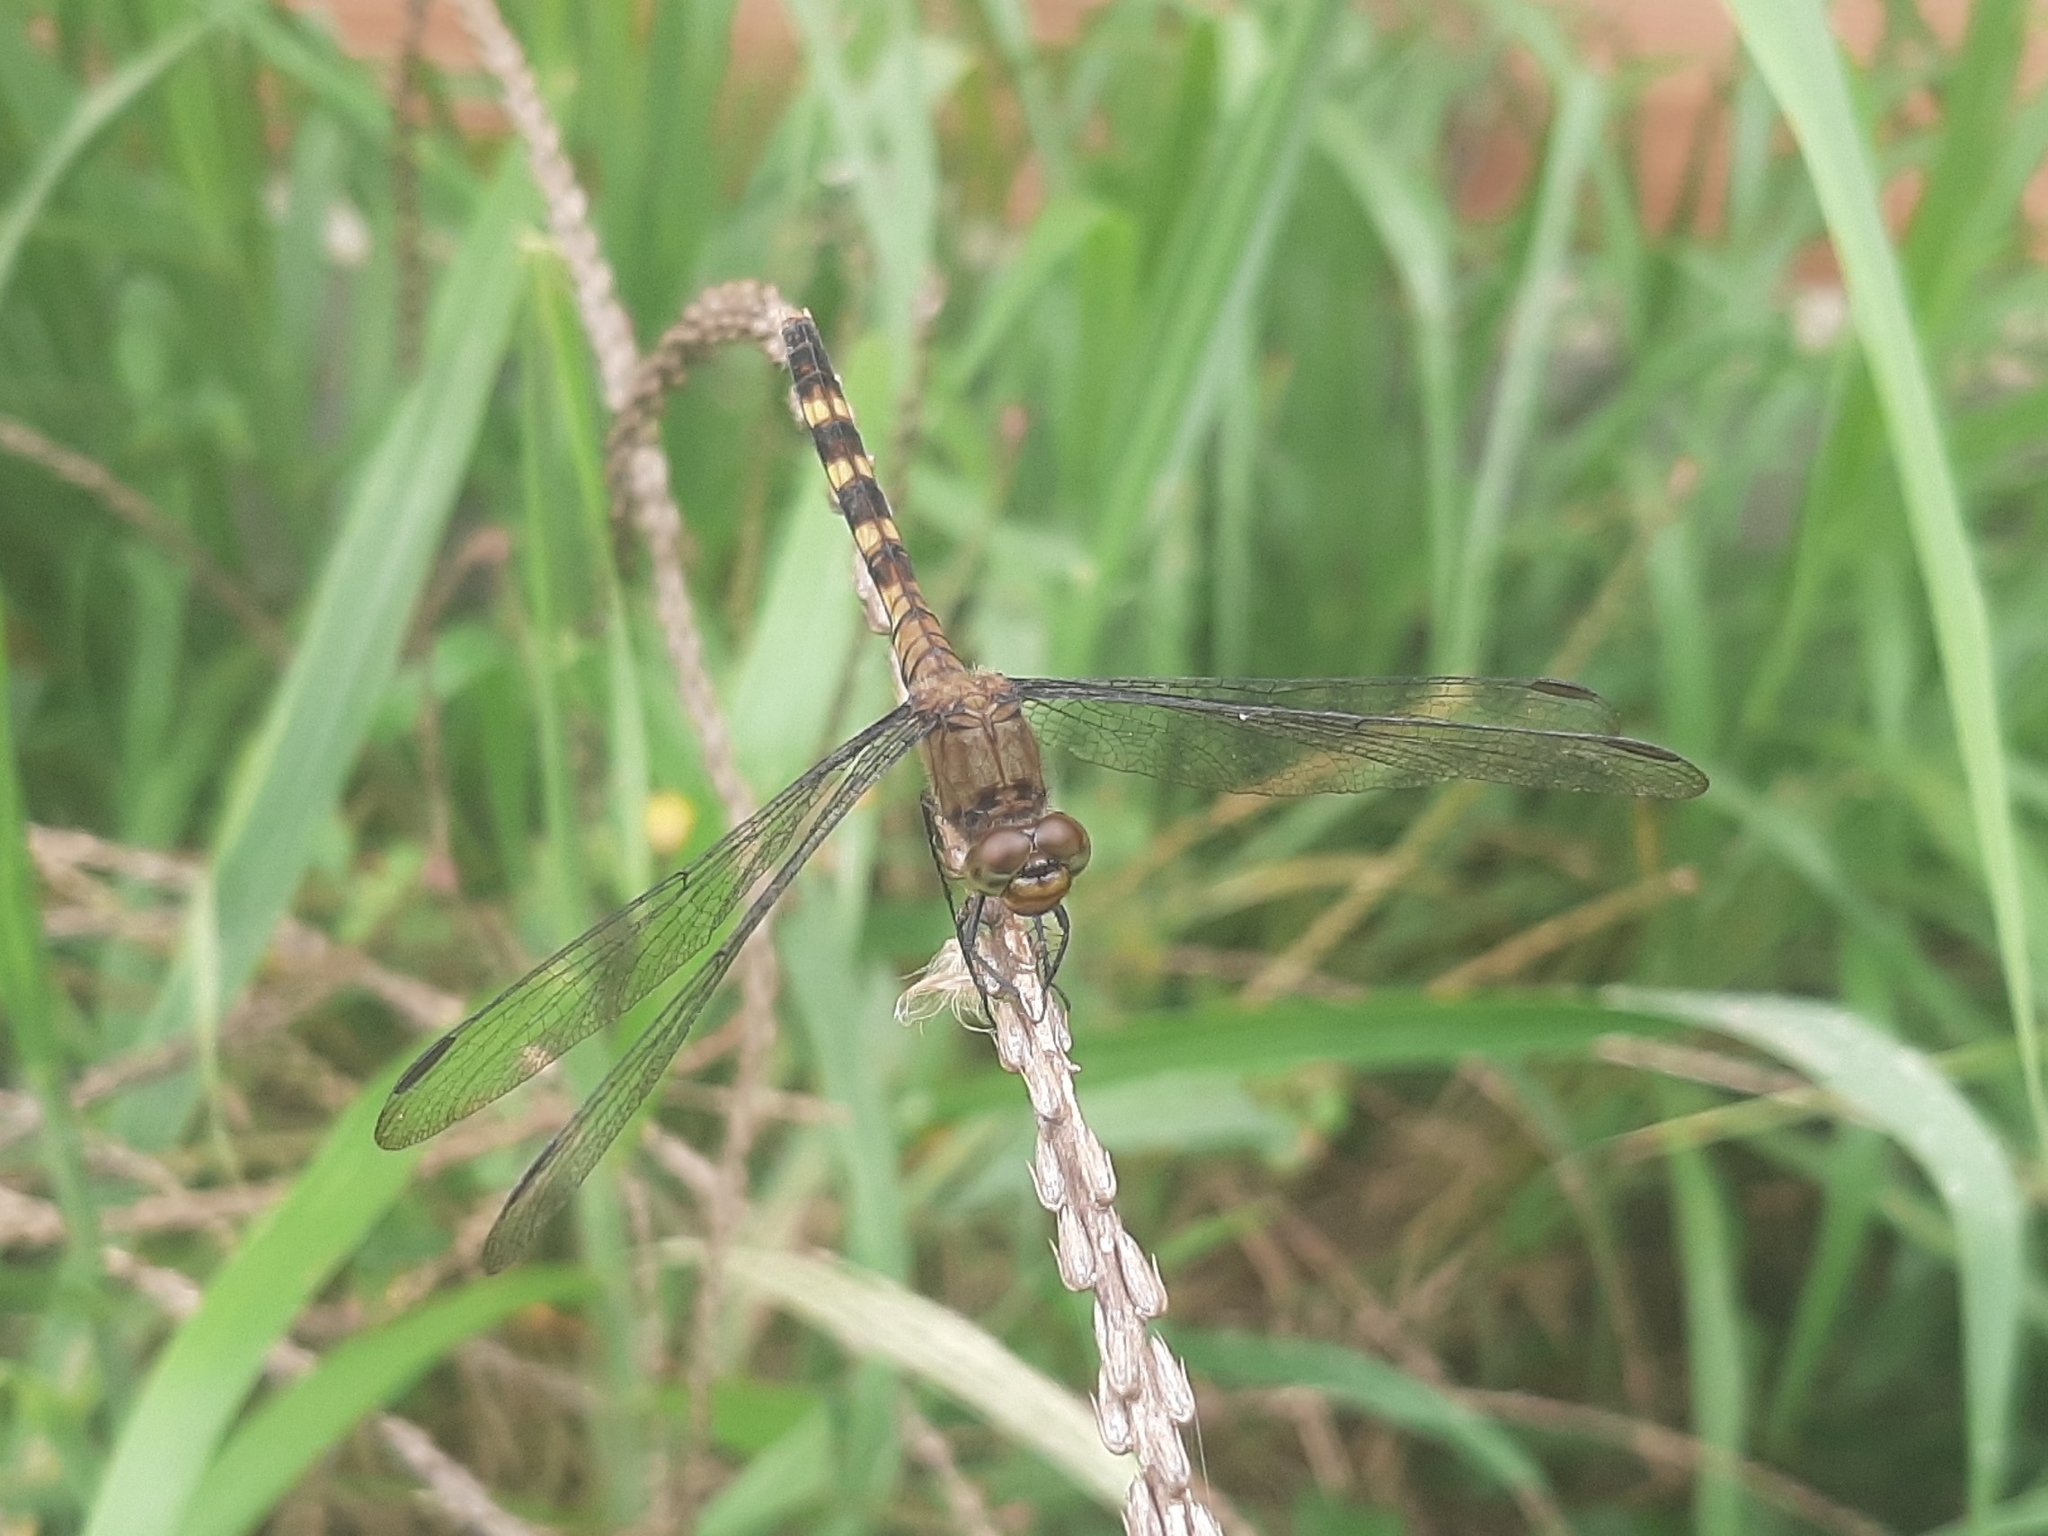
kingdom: Animalia
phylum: Arthropoda
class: Insecta
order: Odonata
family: Libellulidae
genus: Erythemis
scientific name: Erythemis plebeja
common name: Pin-tailed pondhawk
